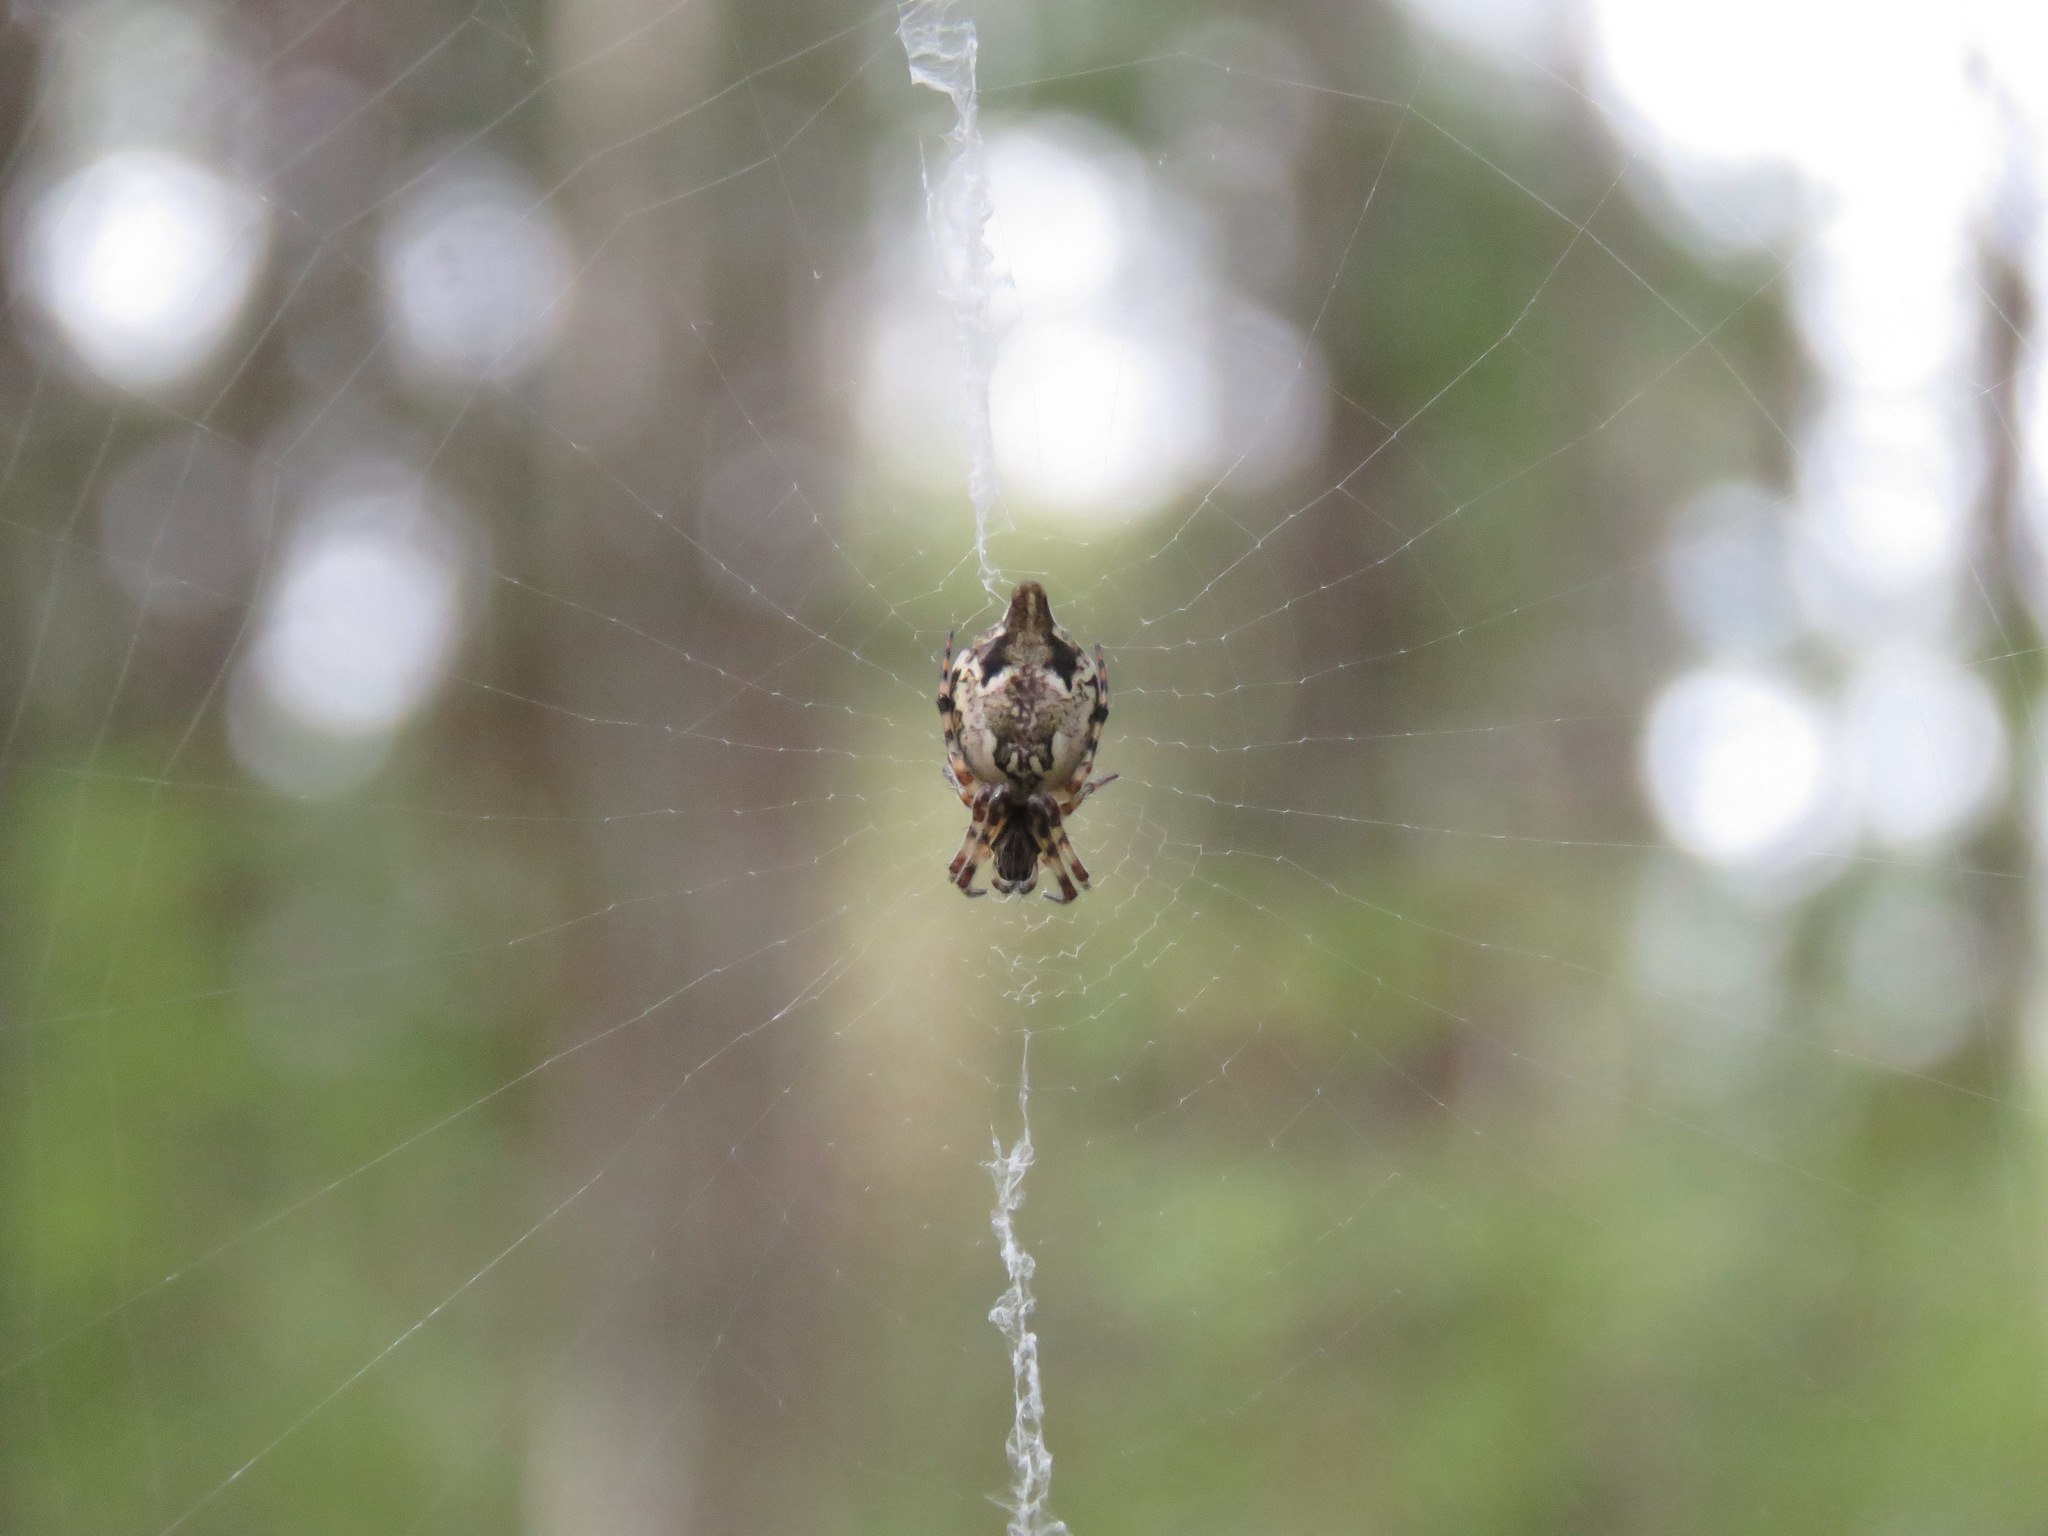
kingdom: Animalia
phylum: Arthropoda
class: Arachnida
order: Araneae
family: Araneidae
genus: Cyclosa
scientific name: Cyclosa conica
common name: Conical trashline orbweaver
